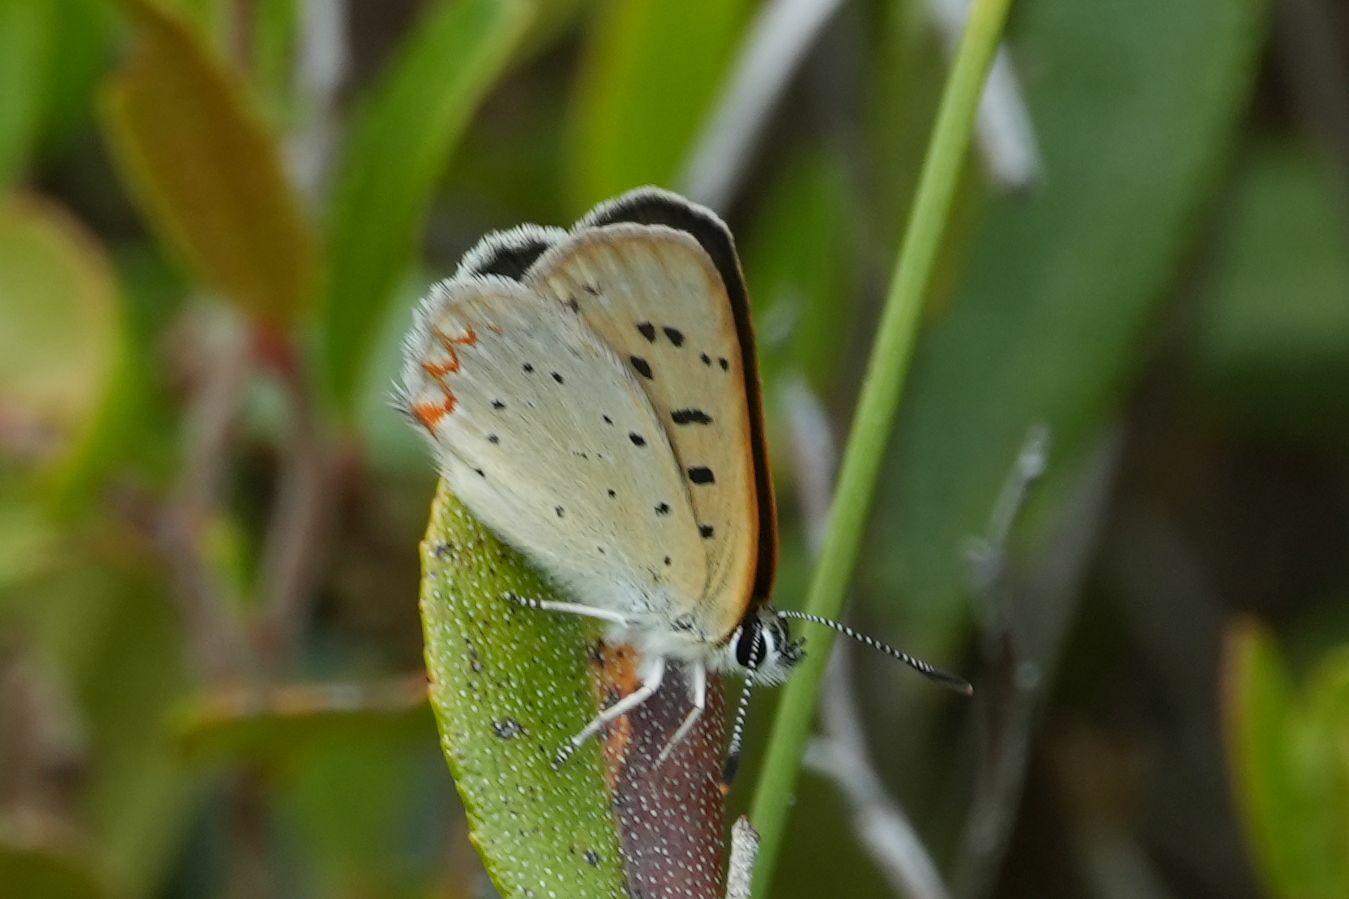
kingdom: Animalia
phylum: Arthropoda
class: Insecta
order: Lepidoptera
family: Lycaenidae
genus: Tharsalea
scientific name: Tharsalea epixanthe
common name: Bog copper
